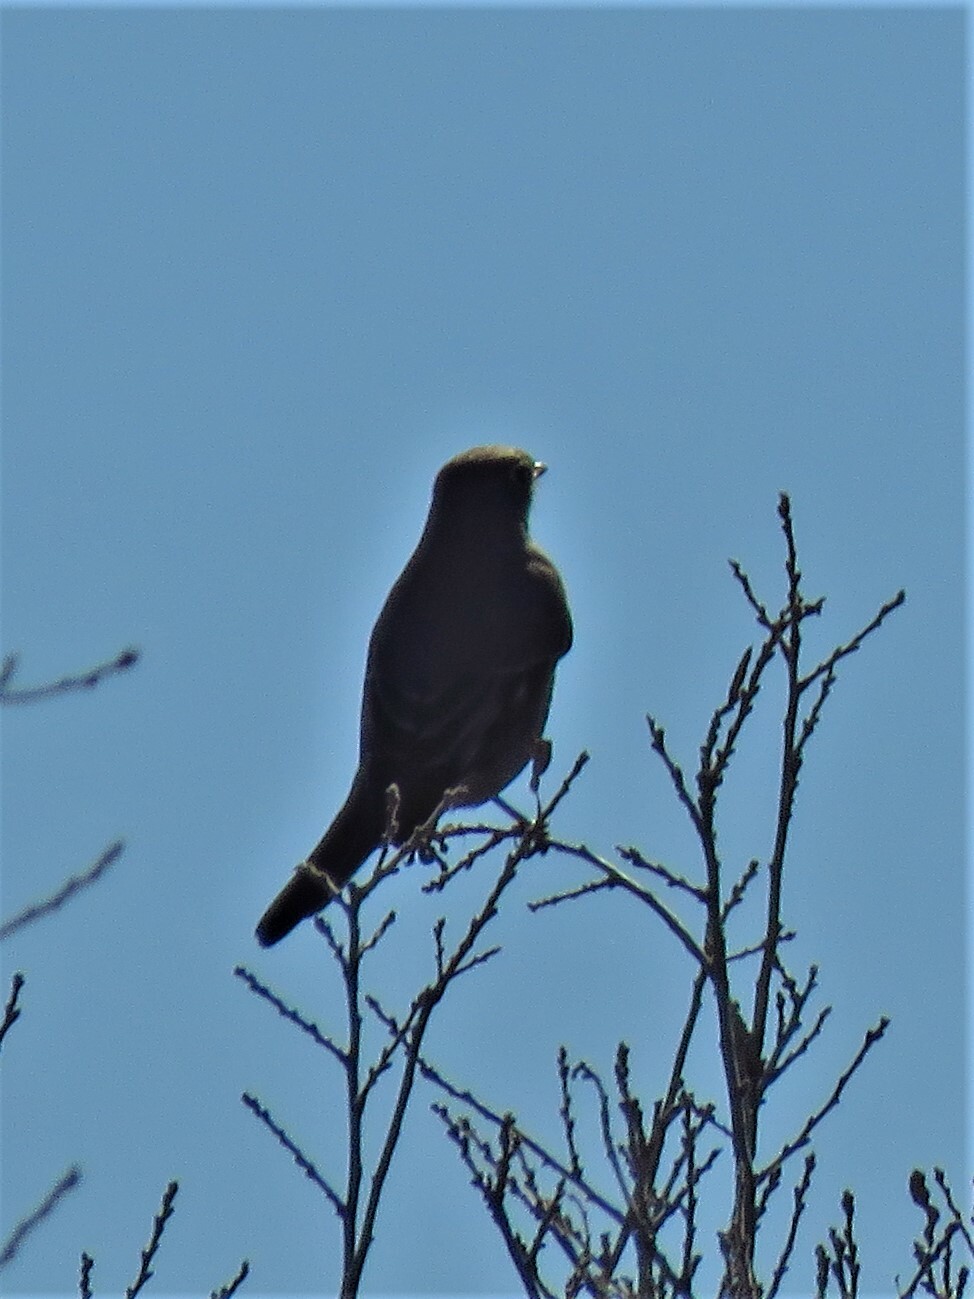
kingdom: Animalia
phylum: Chordata
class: Aves
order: Passeriformes
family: Turdidae
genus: Myadestes
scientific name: Myadestes townsendi
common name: Townsend's solitaire
